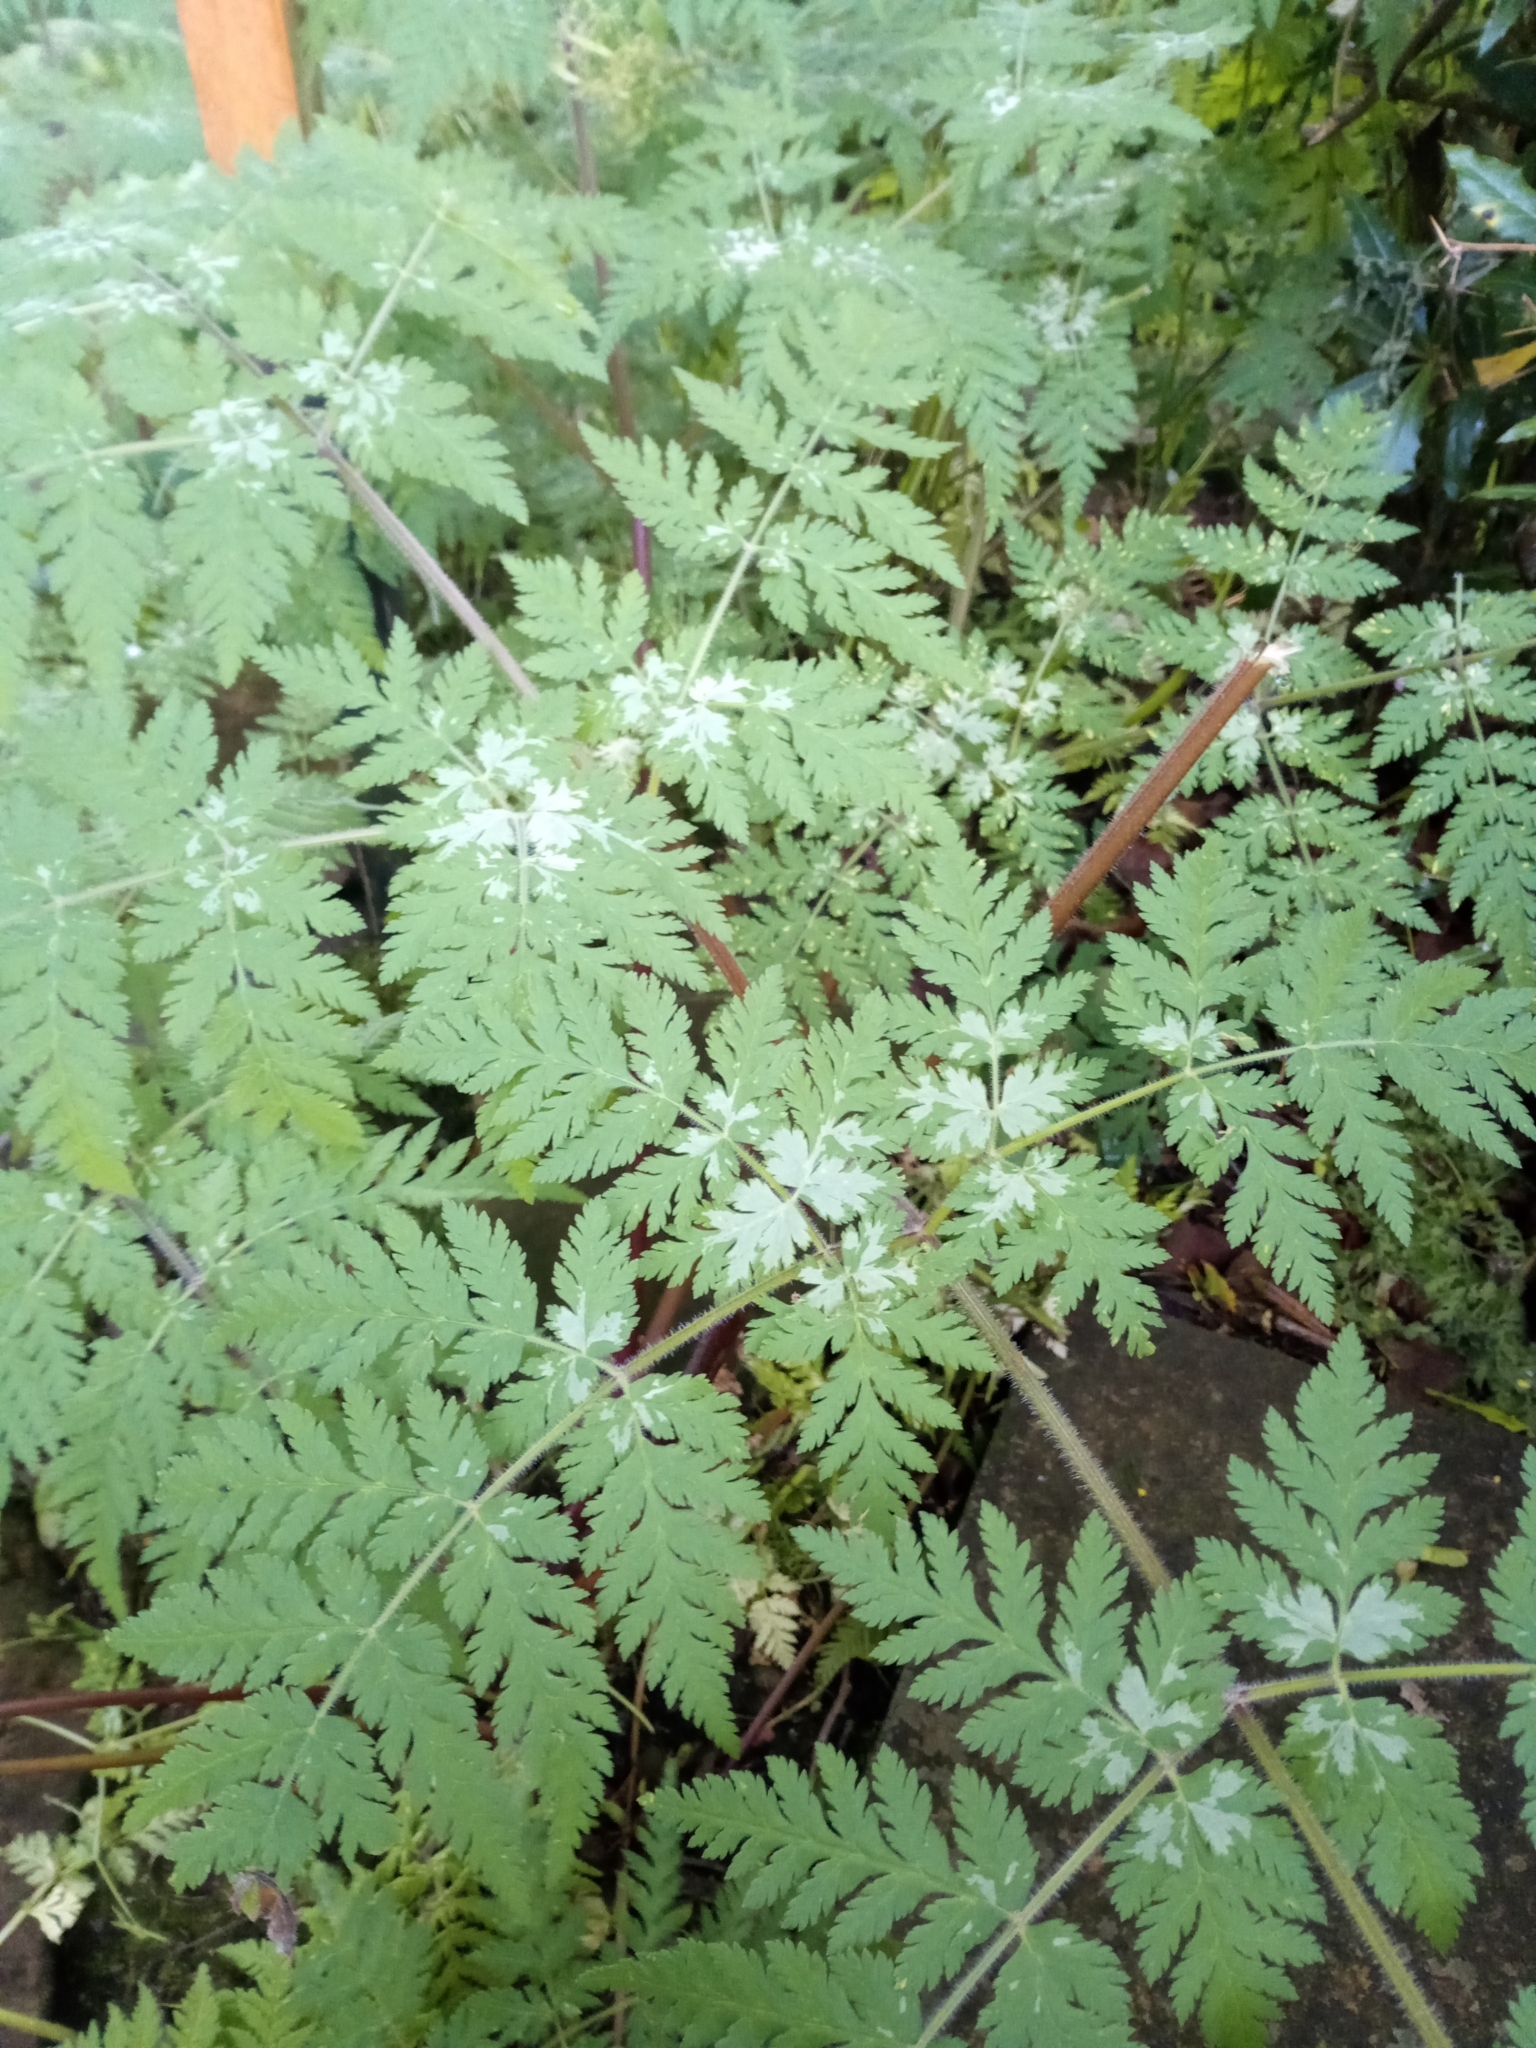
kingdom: Plantae
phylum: Tracheophyta
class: Magnoliopsida
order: Apiales
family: Apiaceae
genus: Myrrhis
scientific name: Myrrhis odorata
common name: Sweet cicely
